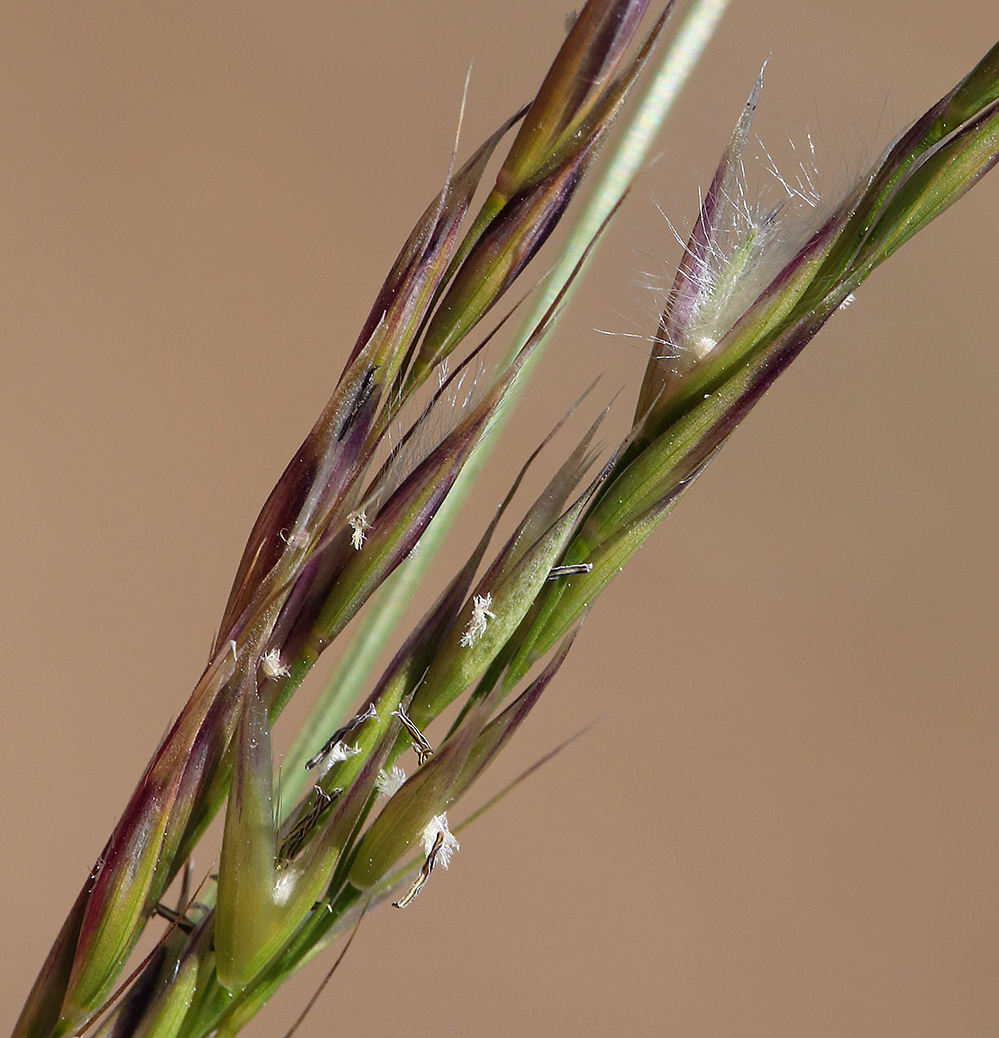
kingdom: Plantae
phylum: Tracheophyta
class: Liliopsida
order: Poales
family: Poaceae
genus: Eriocoma
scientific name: Eriocoma webberi
